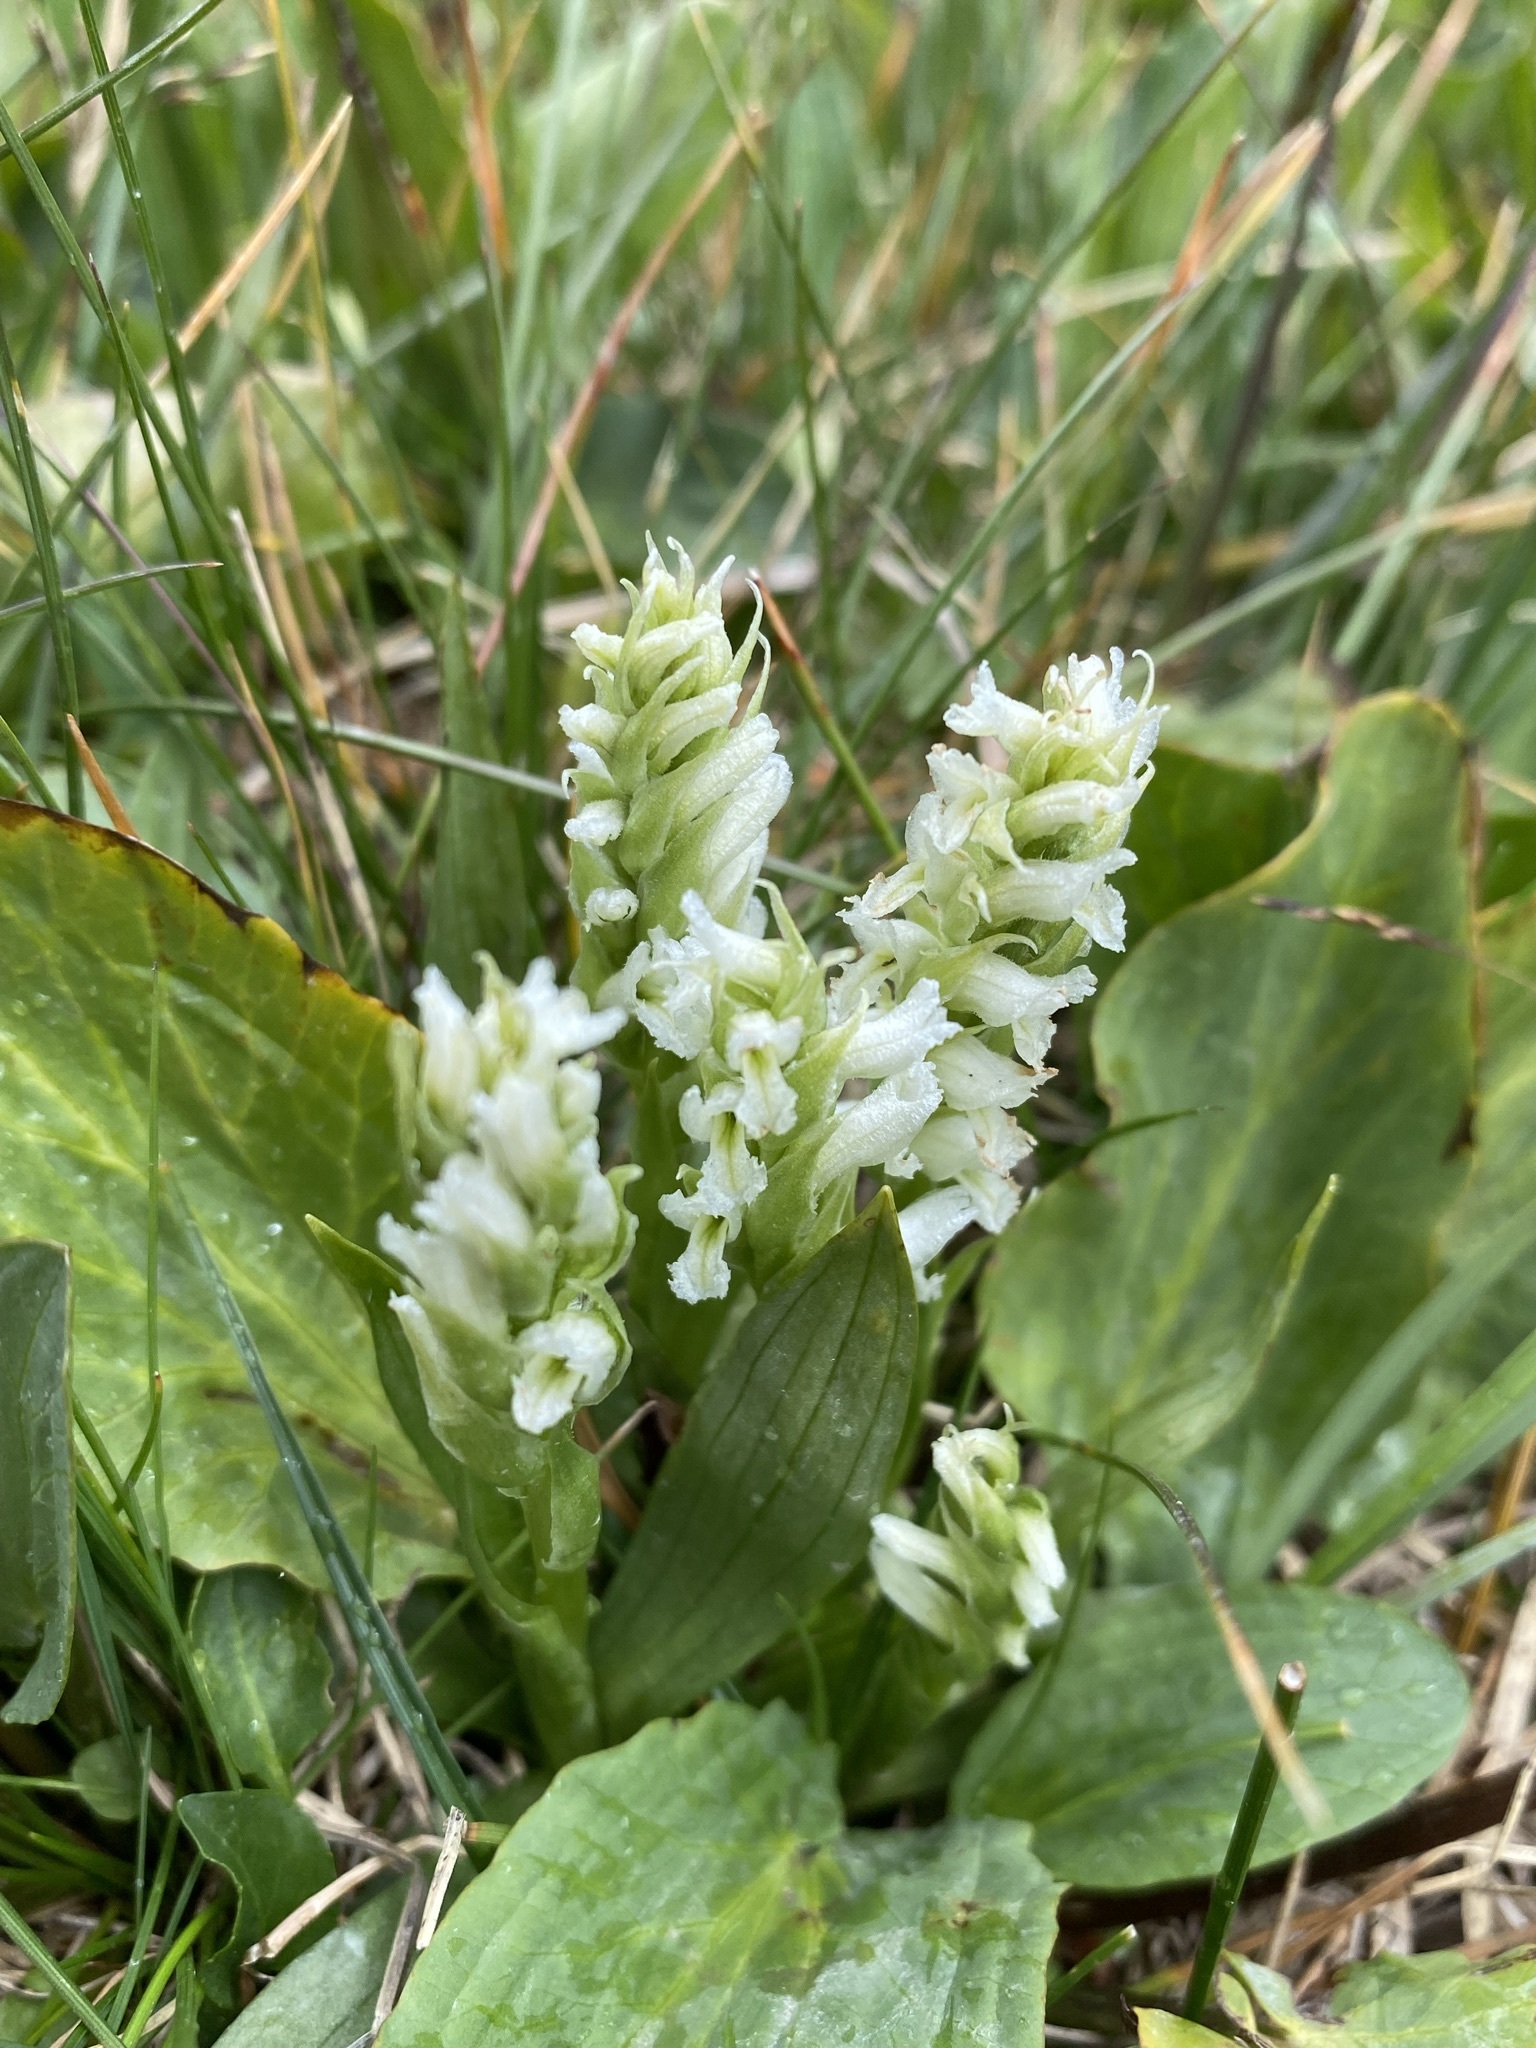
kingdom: Plantae
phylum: Tracheophyta
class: Liliopsida
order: Asparagales
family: Orchidaceae
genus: Spiranthes
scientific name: Spiranthes romanzoffiana
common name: Irish lady's-tresses
